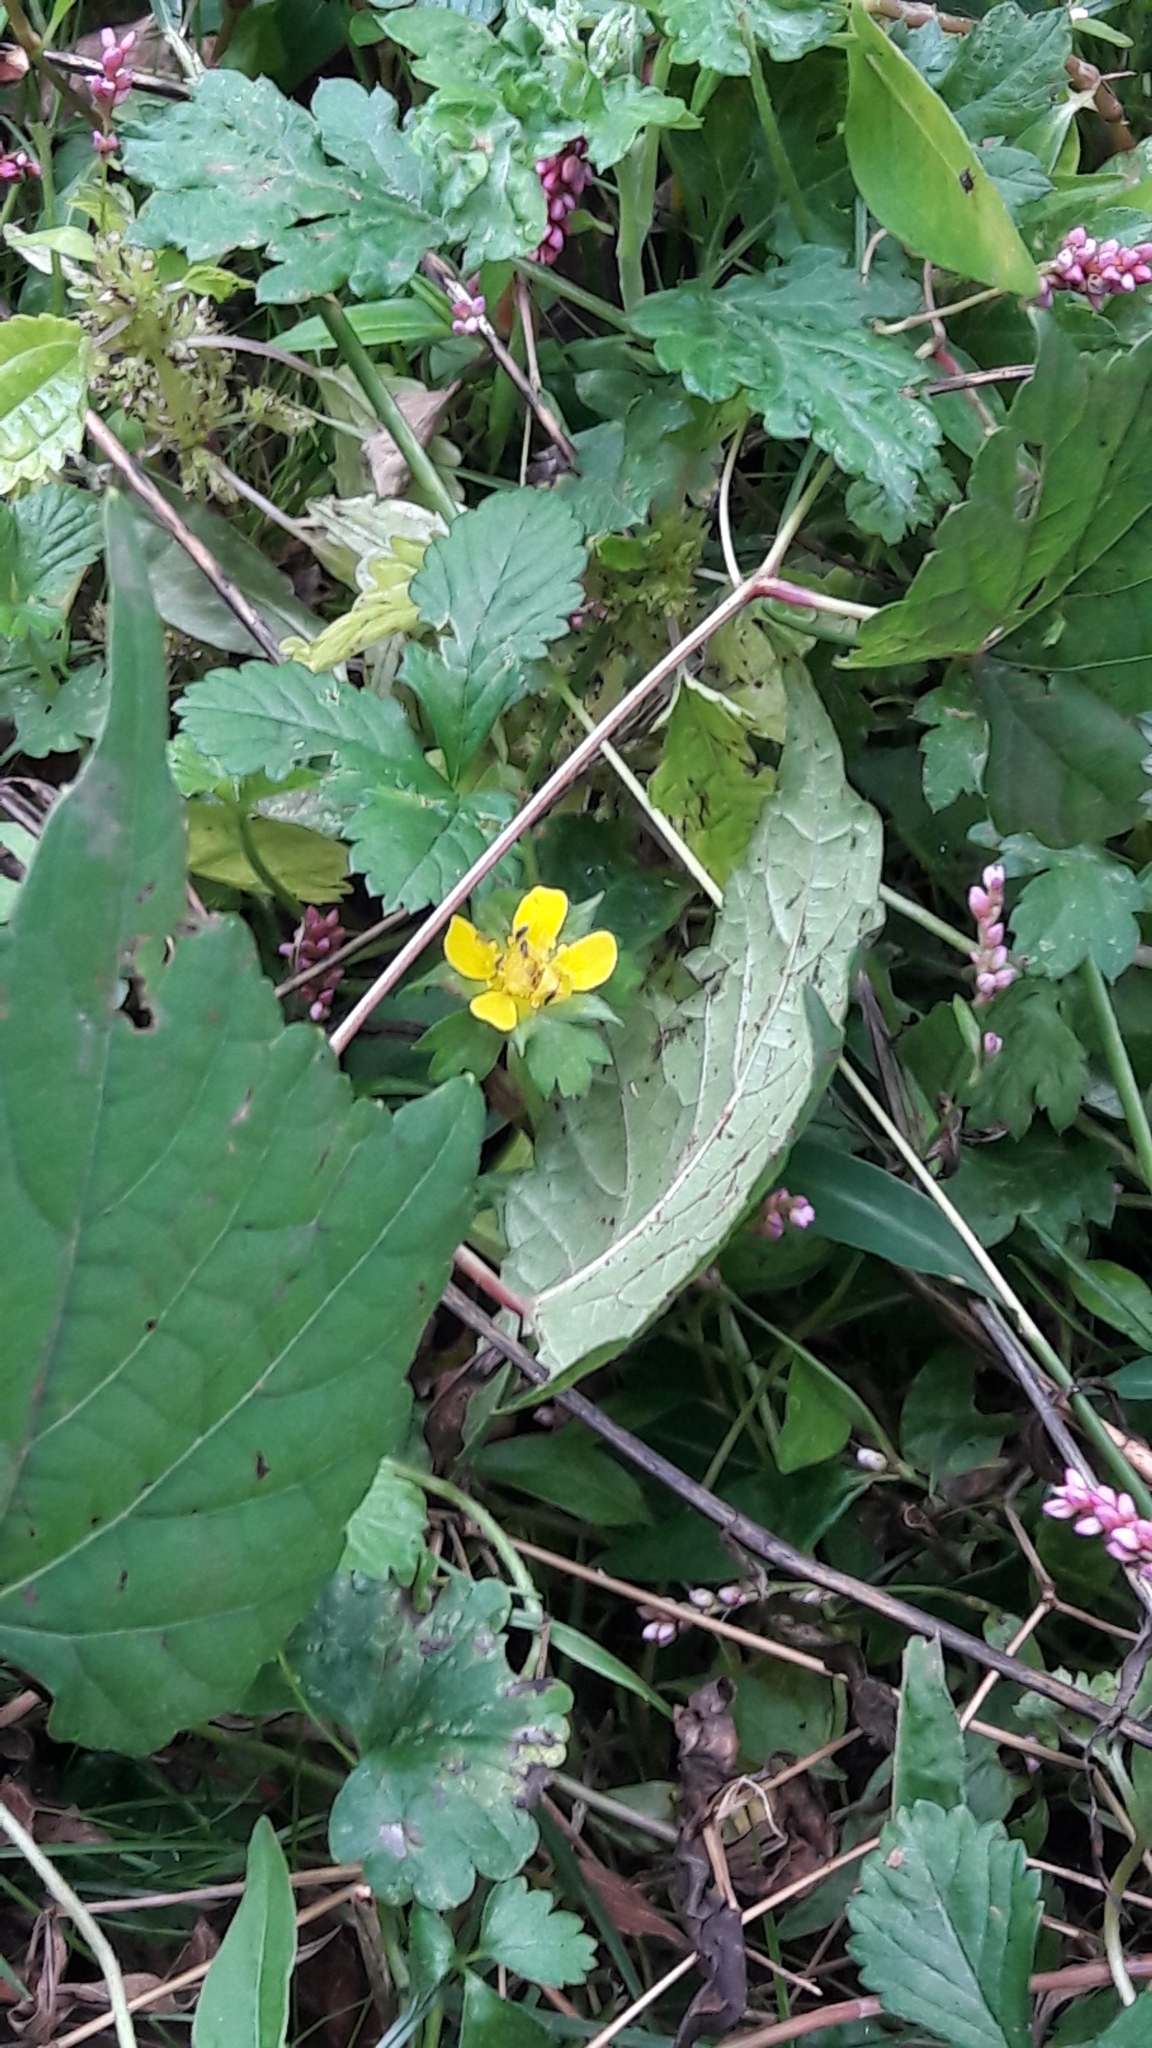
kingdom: Plantae
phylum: Tracheophyta
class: Magnoliopsida
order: Rosales
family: Rosaceae
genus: Potentilla
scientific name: Potentilla indica
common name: Yellow-flowered strawberry
